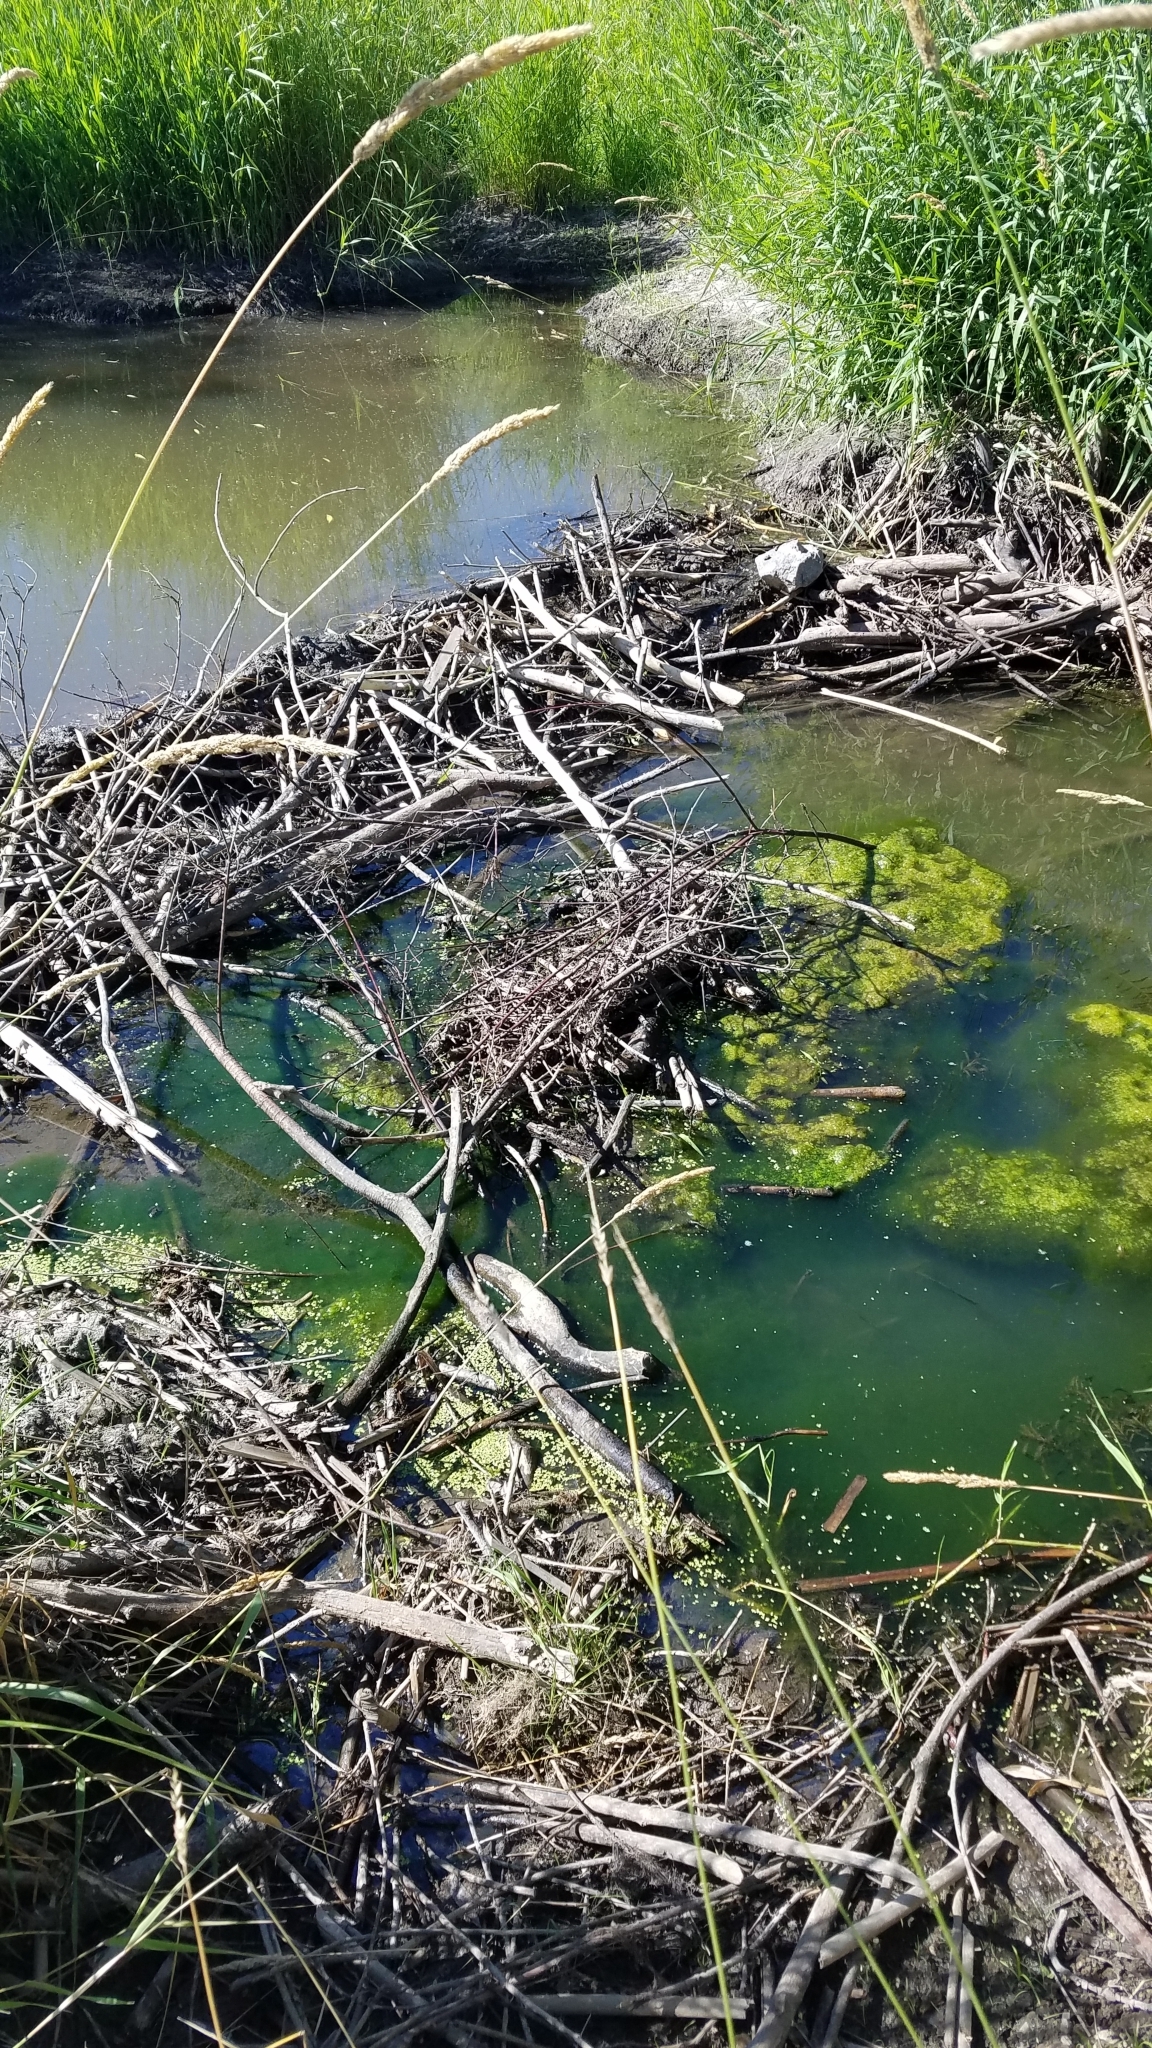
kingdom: Animalia
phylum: Chordata
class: Mammalia
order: Rodentia
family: Castoridae
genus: Castor
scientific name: Castor canadensis
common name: American beaver
